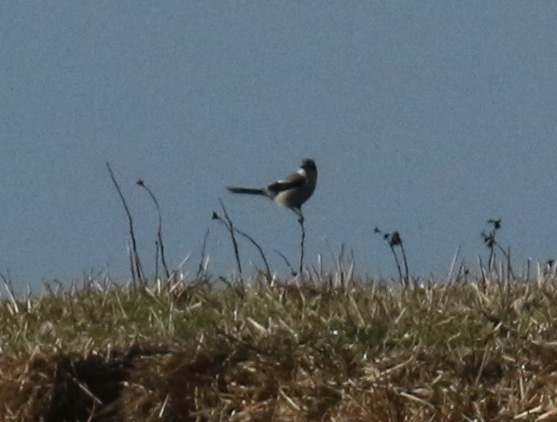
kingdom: Animalia
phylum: Chordata
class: Aves
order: Passeriformes
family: Laniidae
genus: Lanius
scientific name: Lanius excubitor
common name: Great grey shrike
